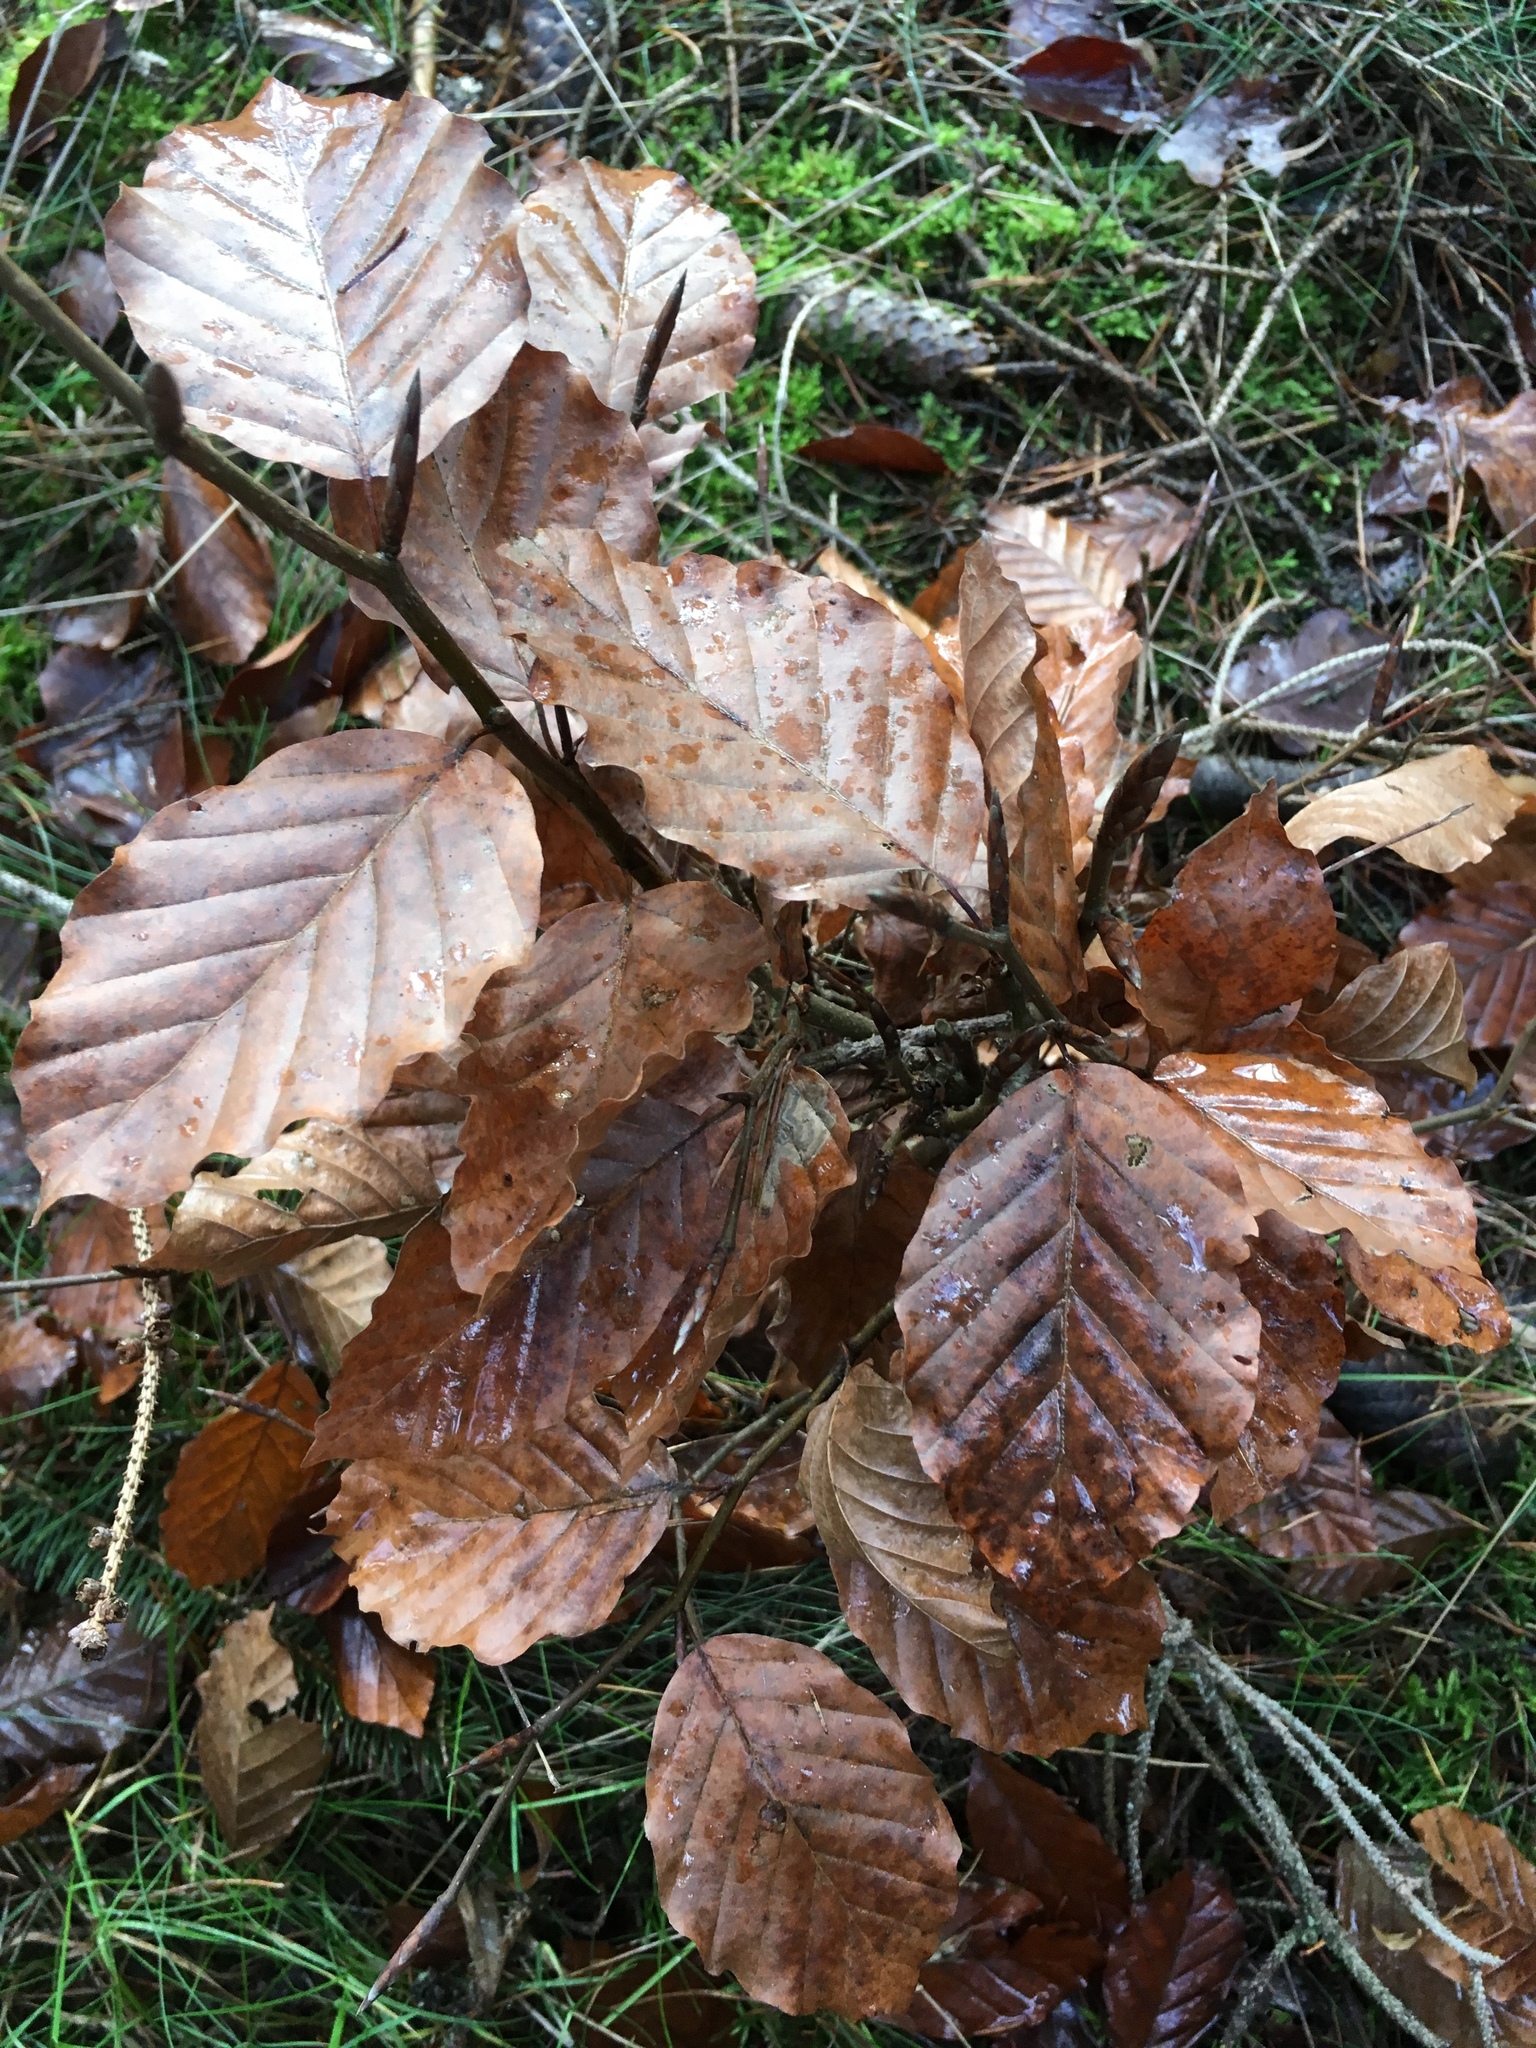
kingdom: Plantae
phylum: Tracheophyta
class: Magnoliopsida
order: Fagales
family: Fagaceae
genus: Fagus
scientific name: Fagus sylvatica
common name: Beech
